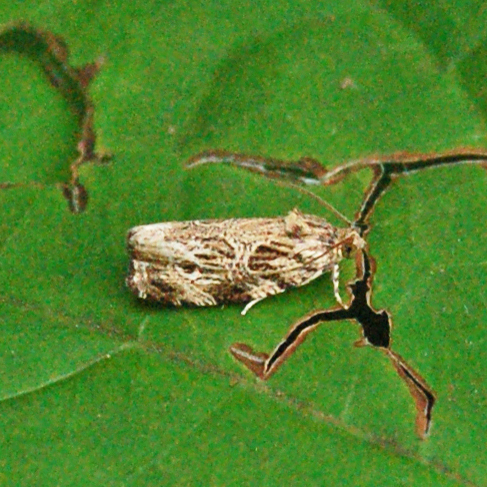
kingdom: Animalia
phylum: Arthropoda
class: Insecta
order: Lepidoptera
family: Tortricidae
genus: Phaecasiophora
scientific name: Phaecasiophora confixana
